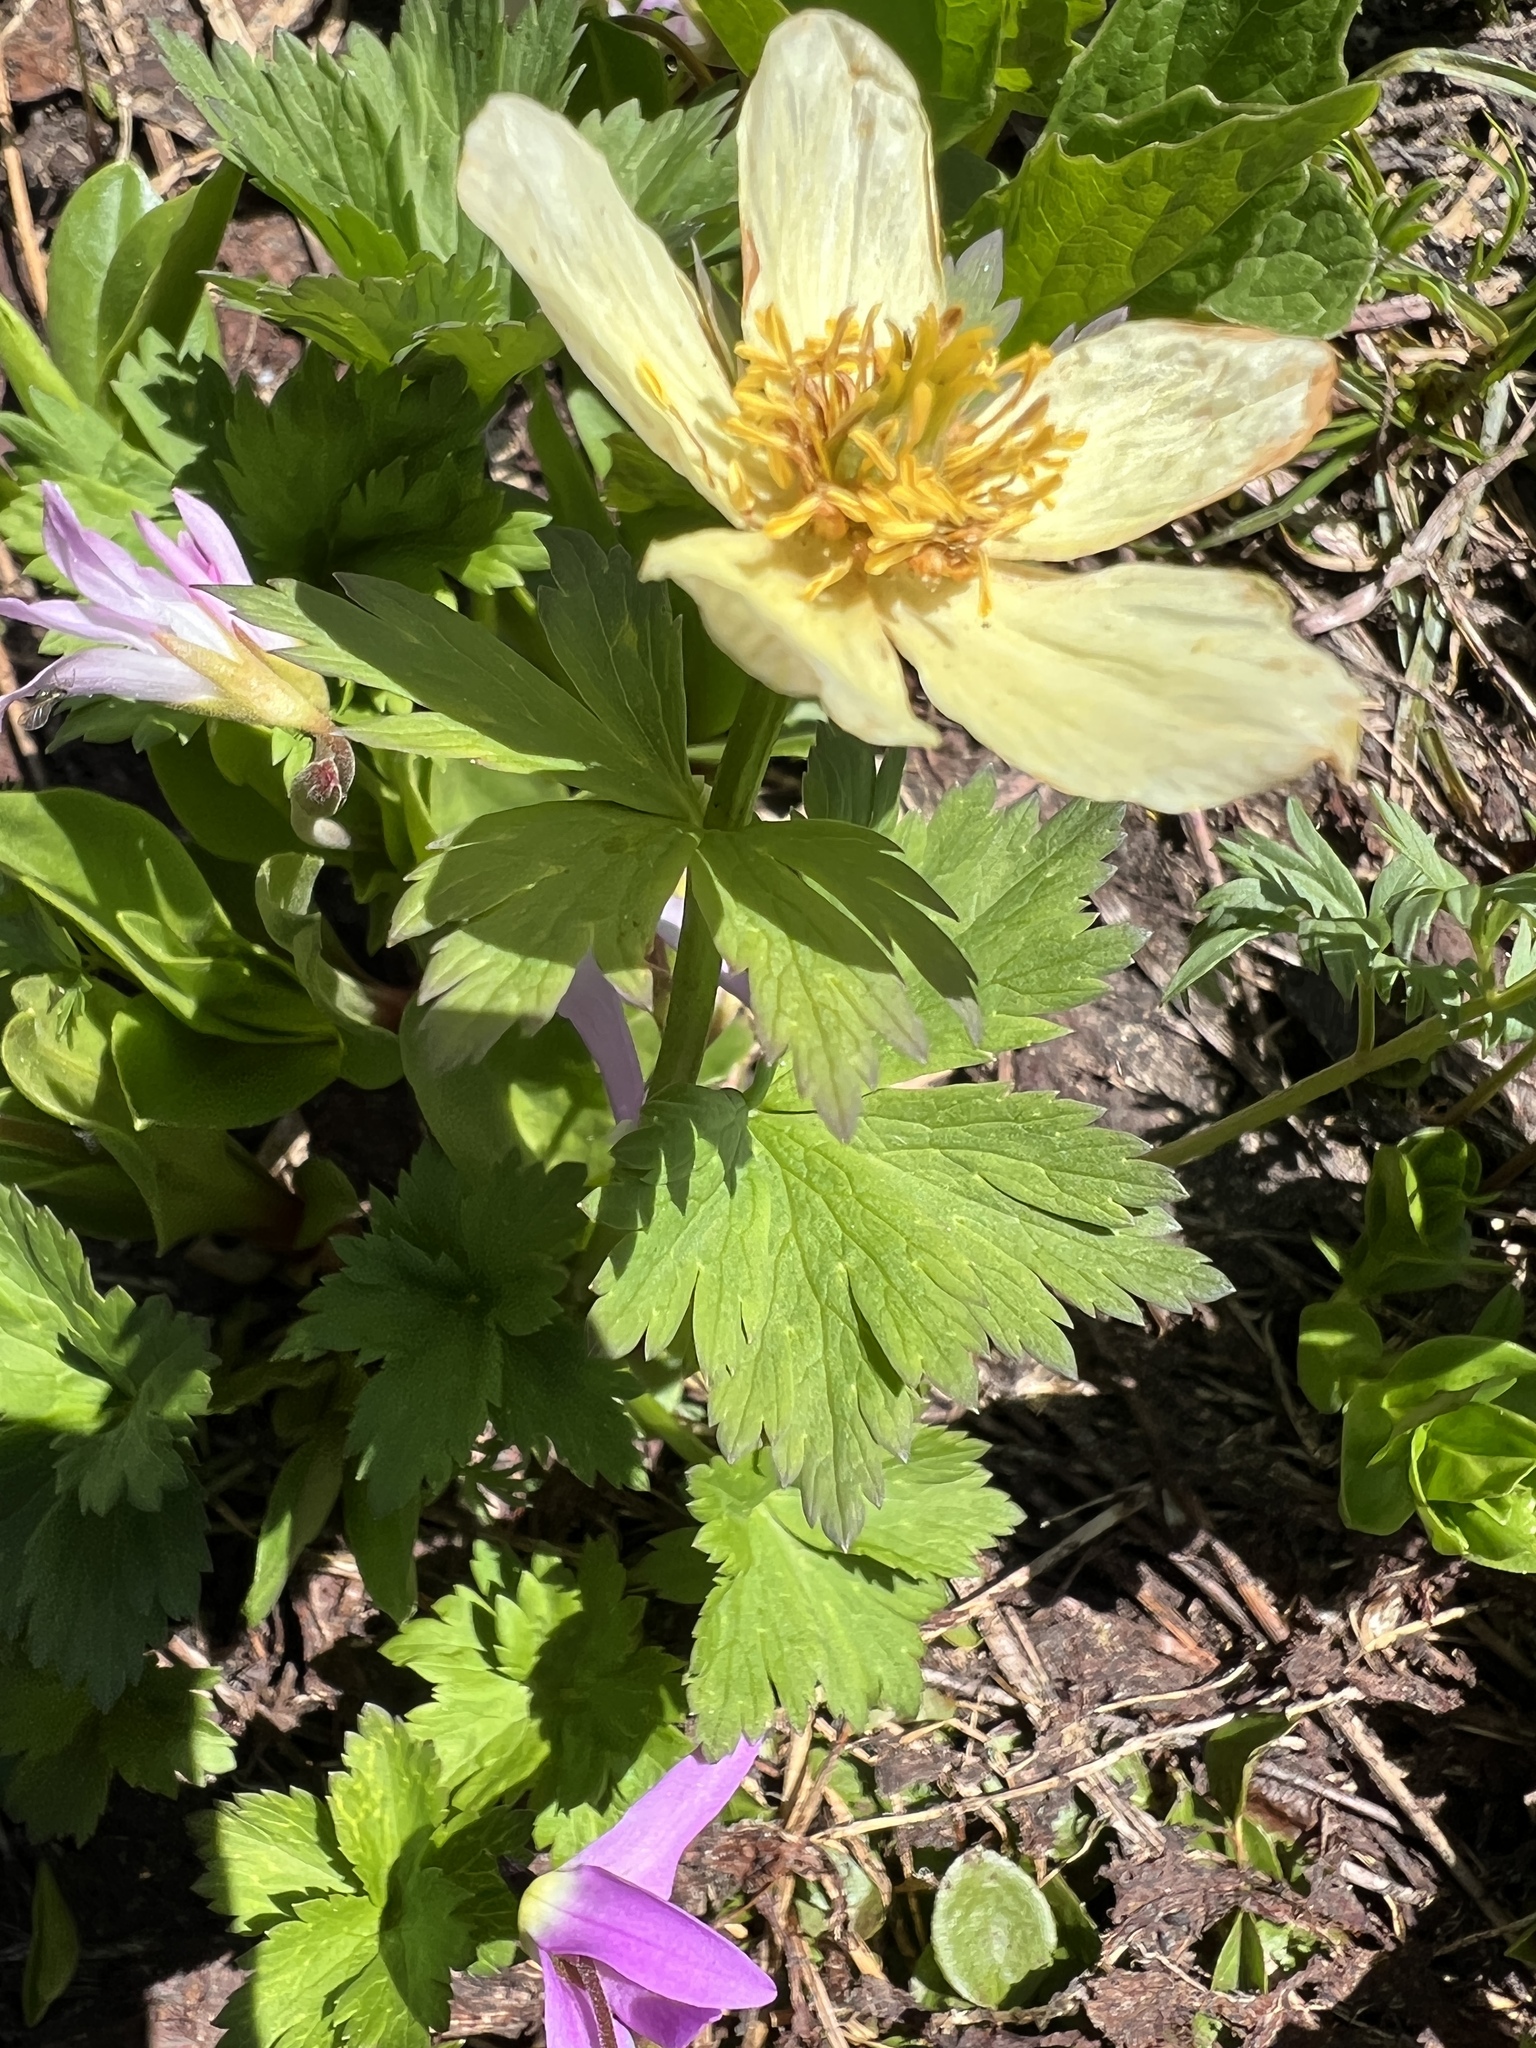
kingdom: Plantae
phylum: Tracheophyta
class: Magnoliopsida
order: Ranunculales
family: Ranunculaceae
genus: Trollius
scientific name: Trollius laxus
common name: American globeflower
